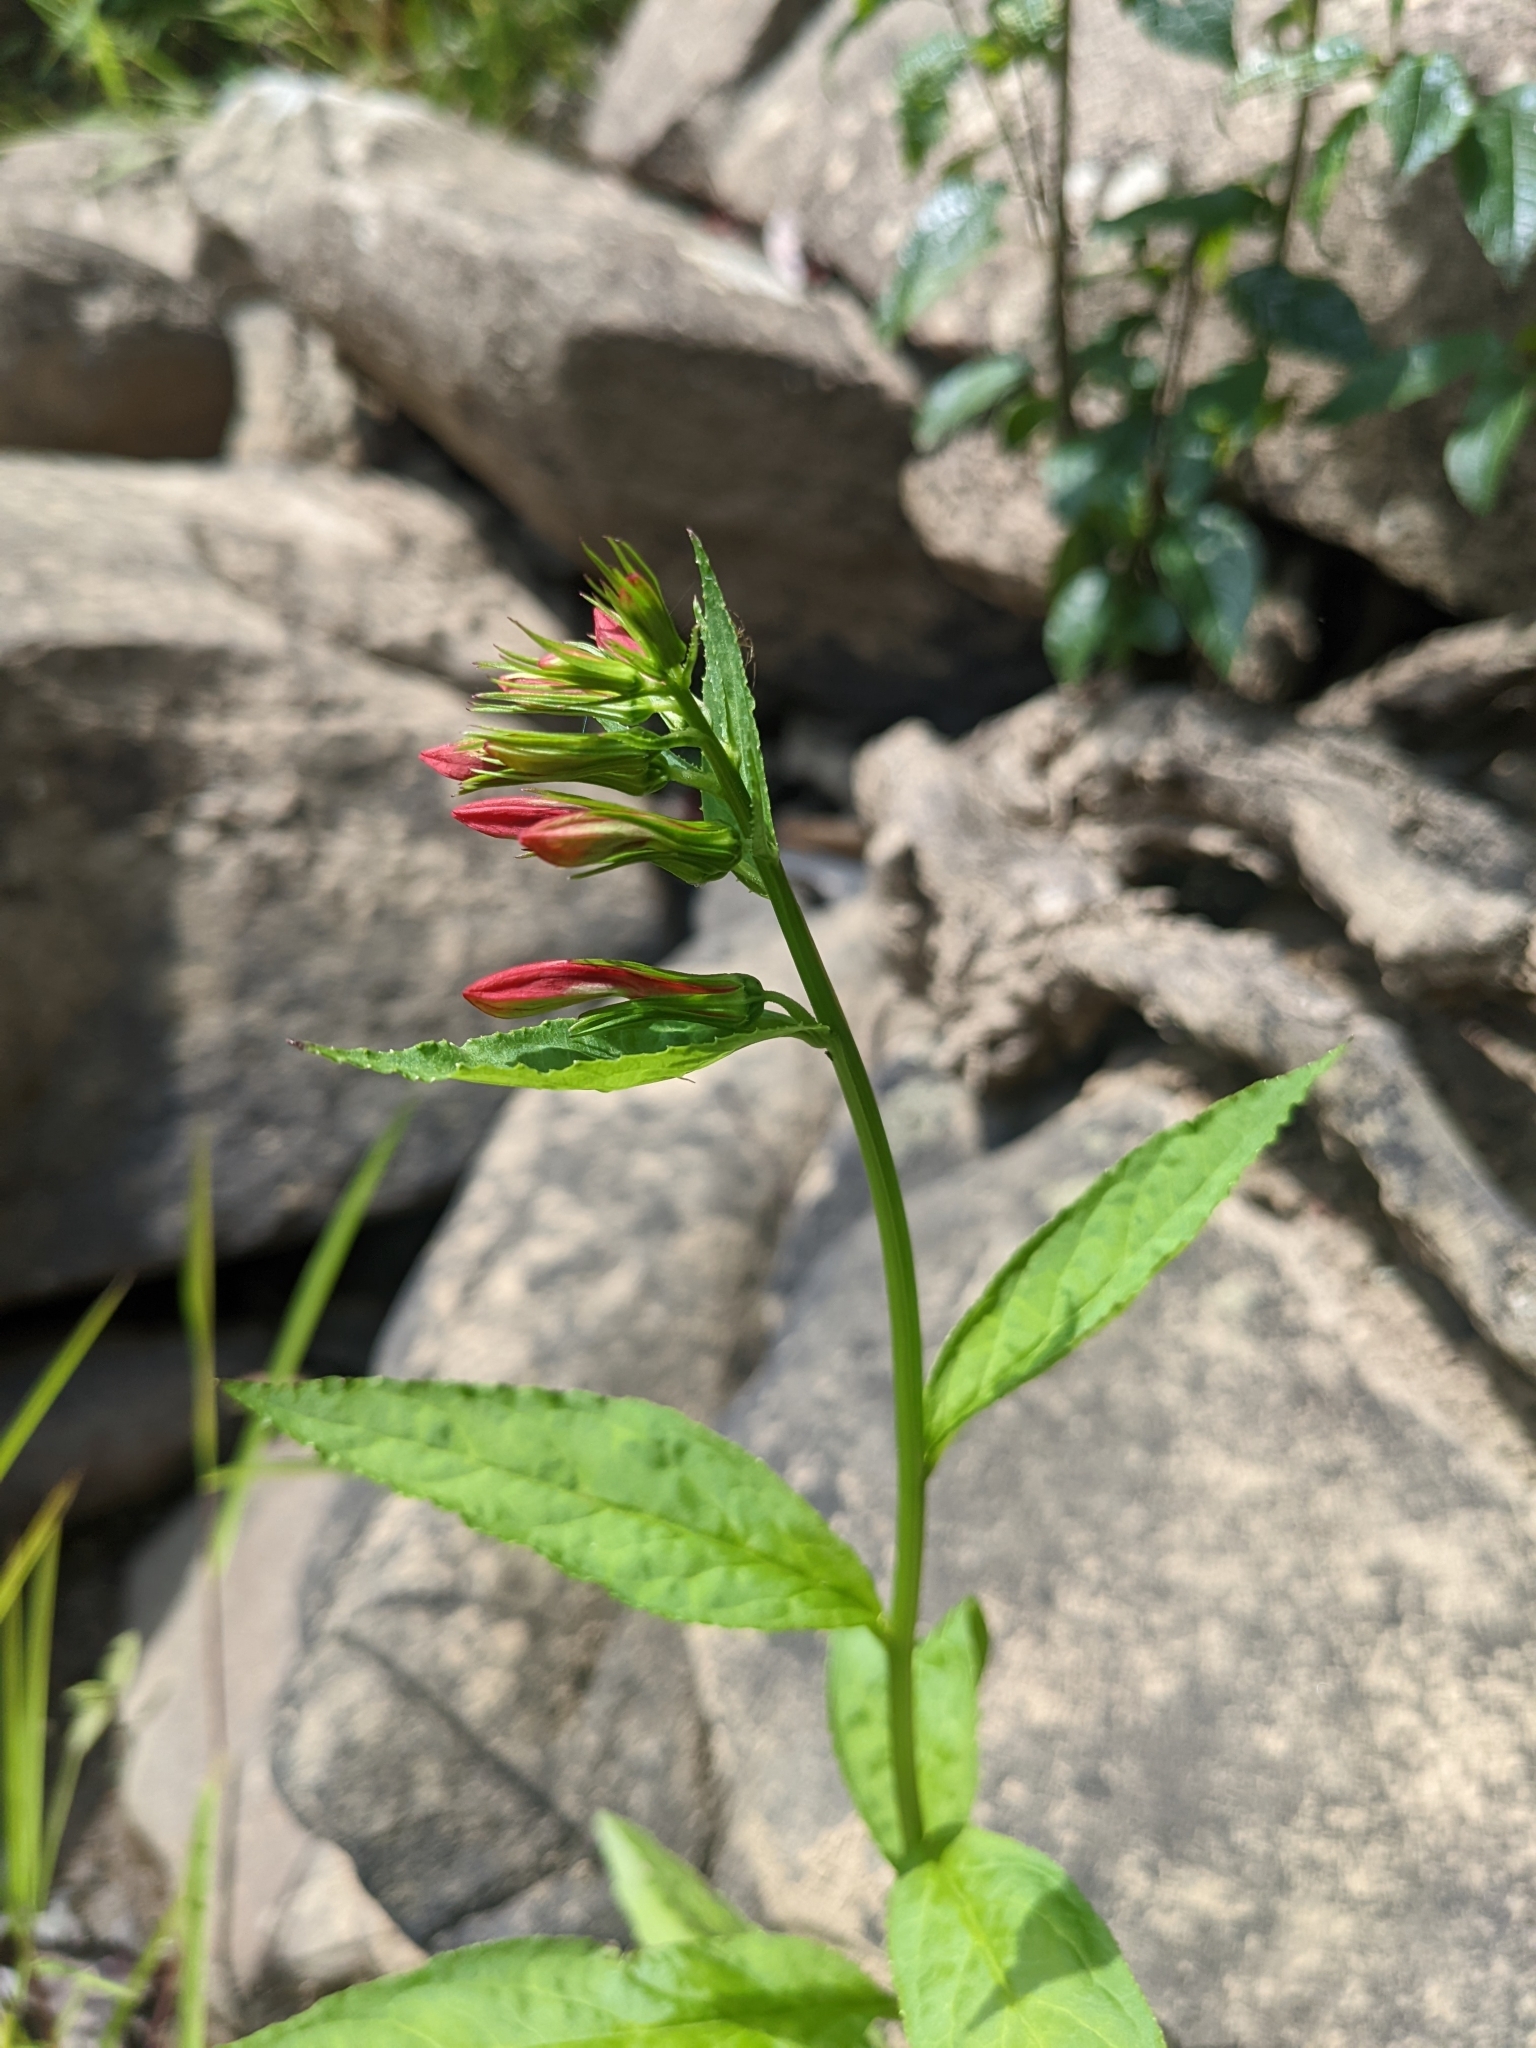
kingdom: Plantae
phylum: Tracheophyta
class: Magnoliopsida
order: Asterales
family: Campanulaceae
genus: Lobelia
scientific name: Lobelia cardinalis
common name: Cardinal flower
